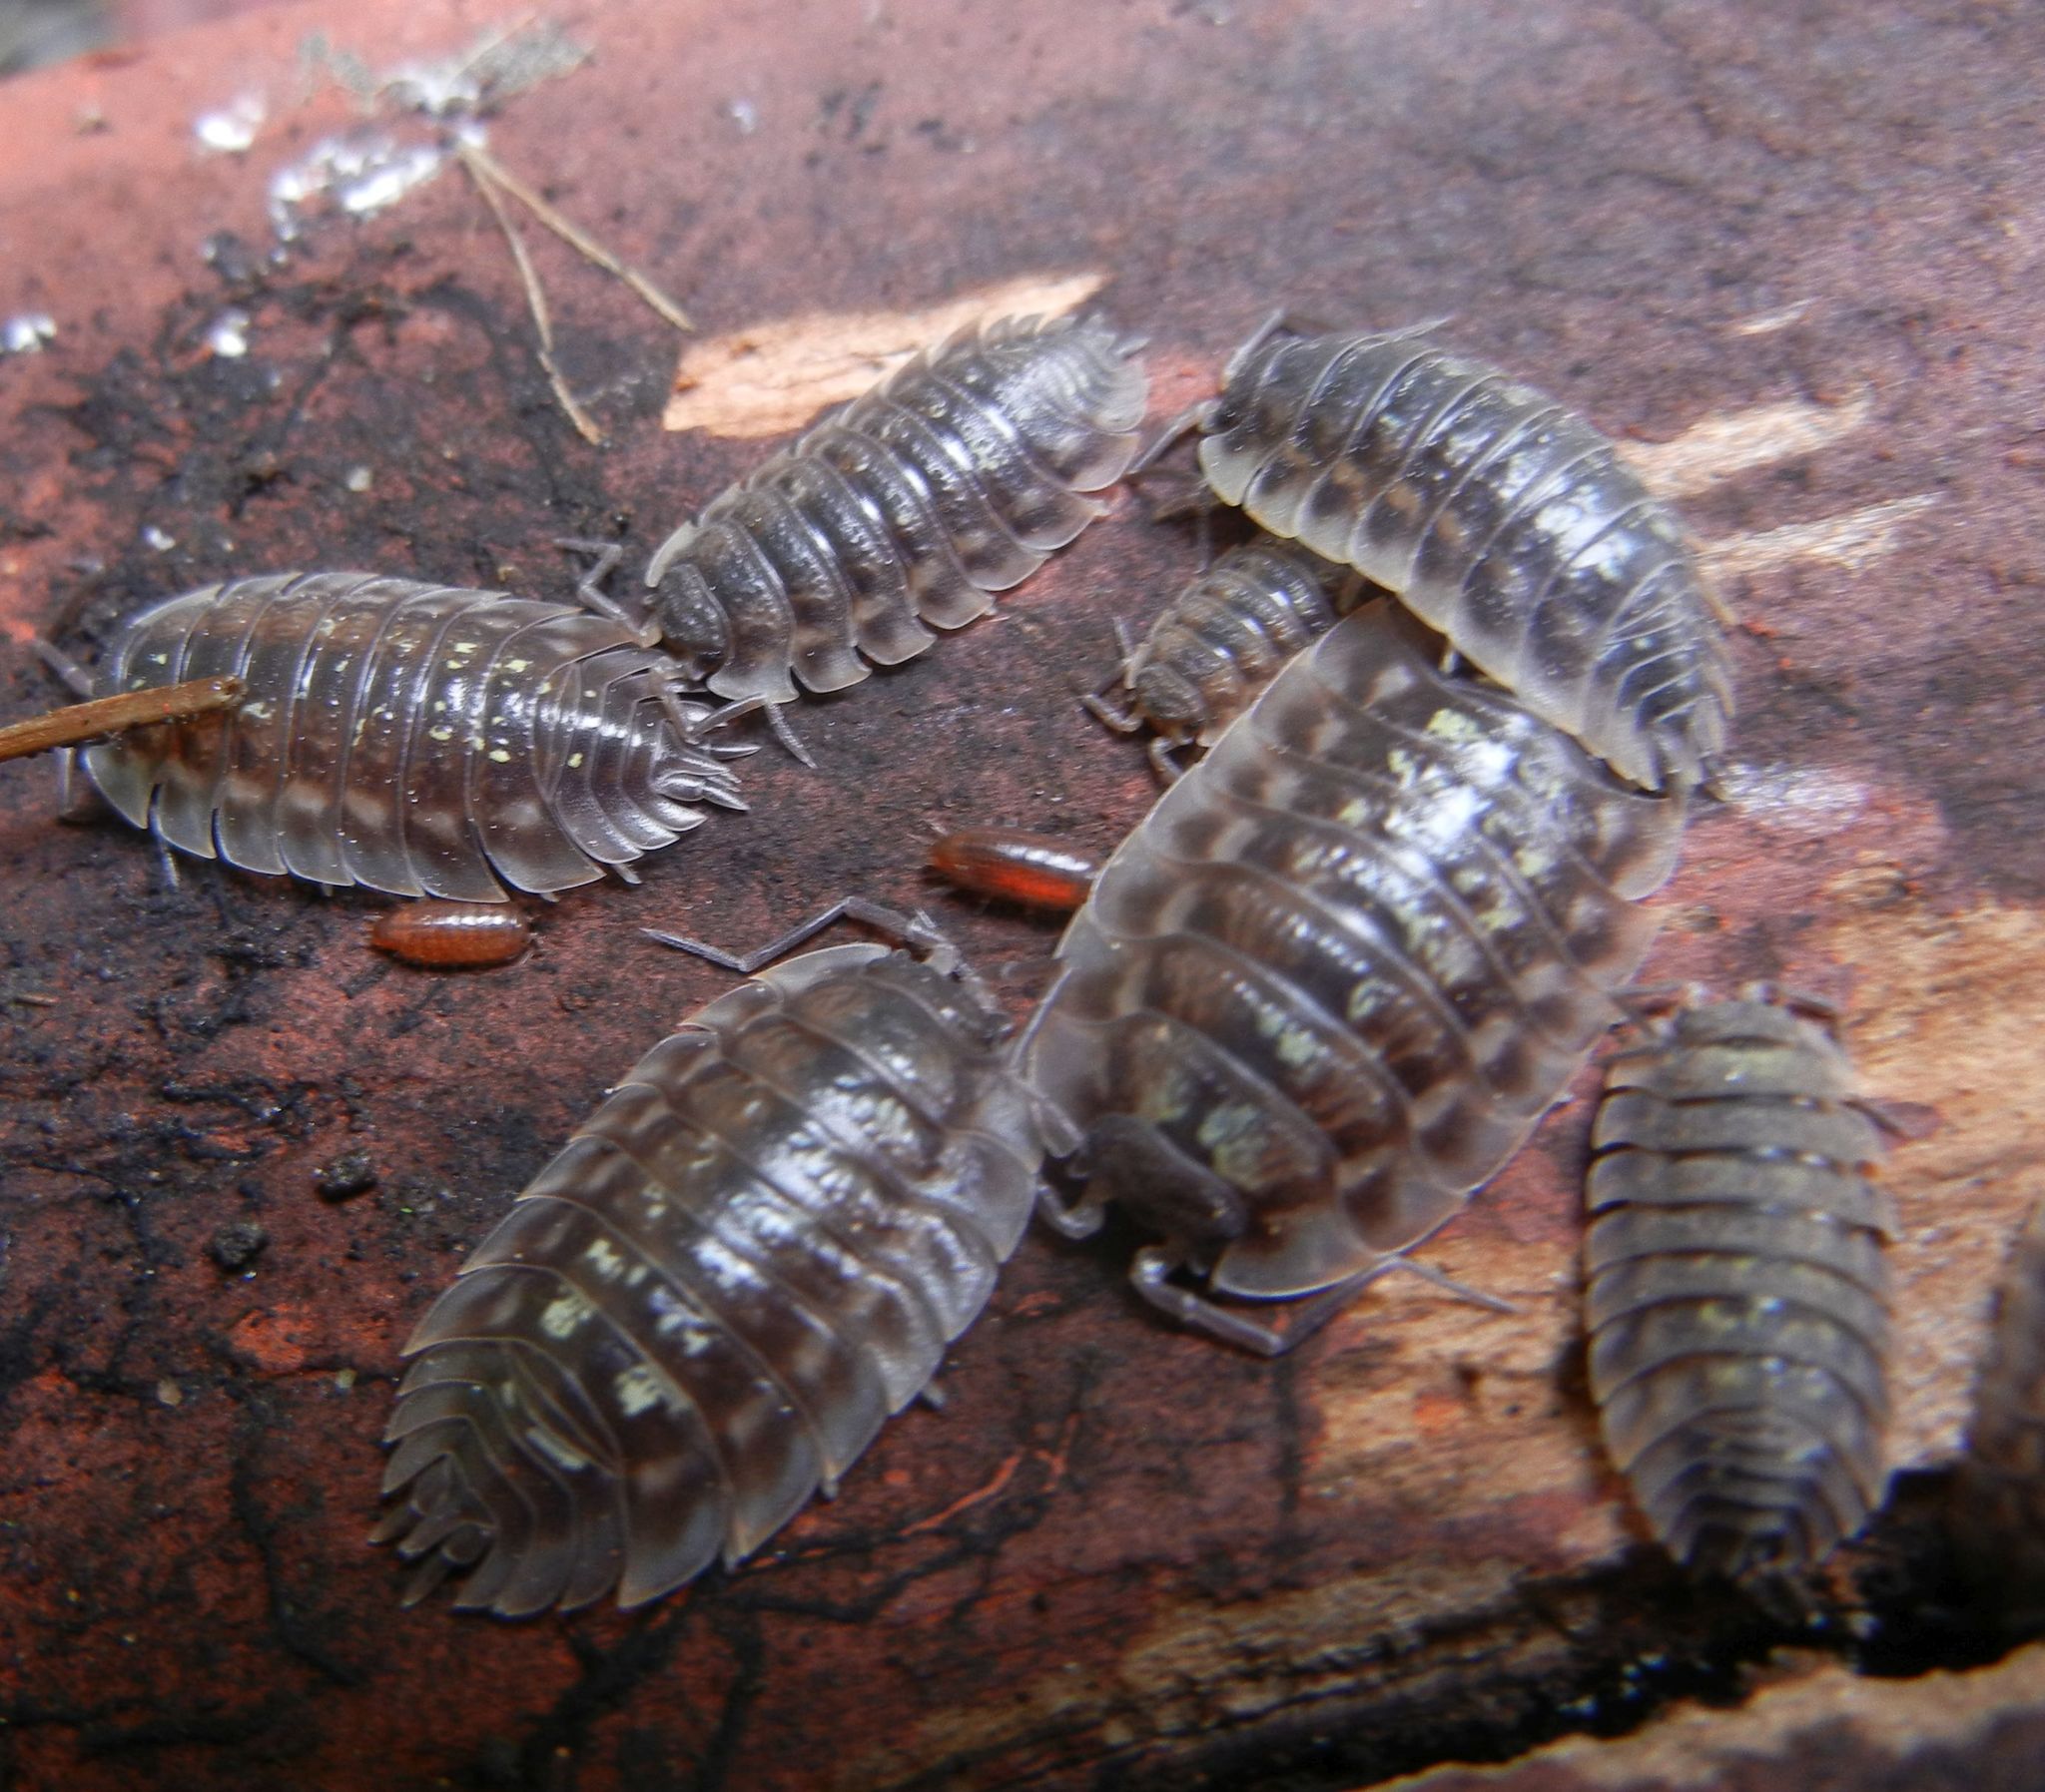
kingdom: Animalia
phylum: Arthropoda
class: Malacostraca
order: Isopoda
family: Oniscidae
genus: Oniscus
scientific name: Oniscus asellus
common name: Common shiny woodlouse
